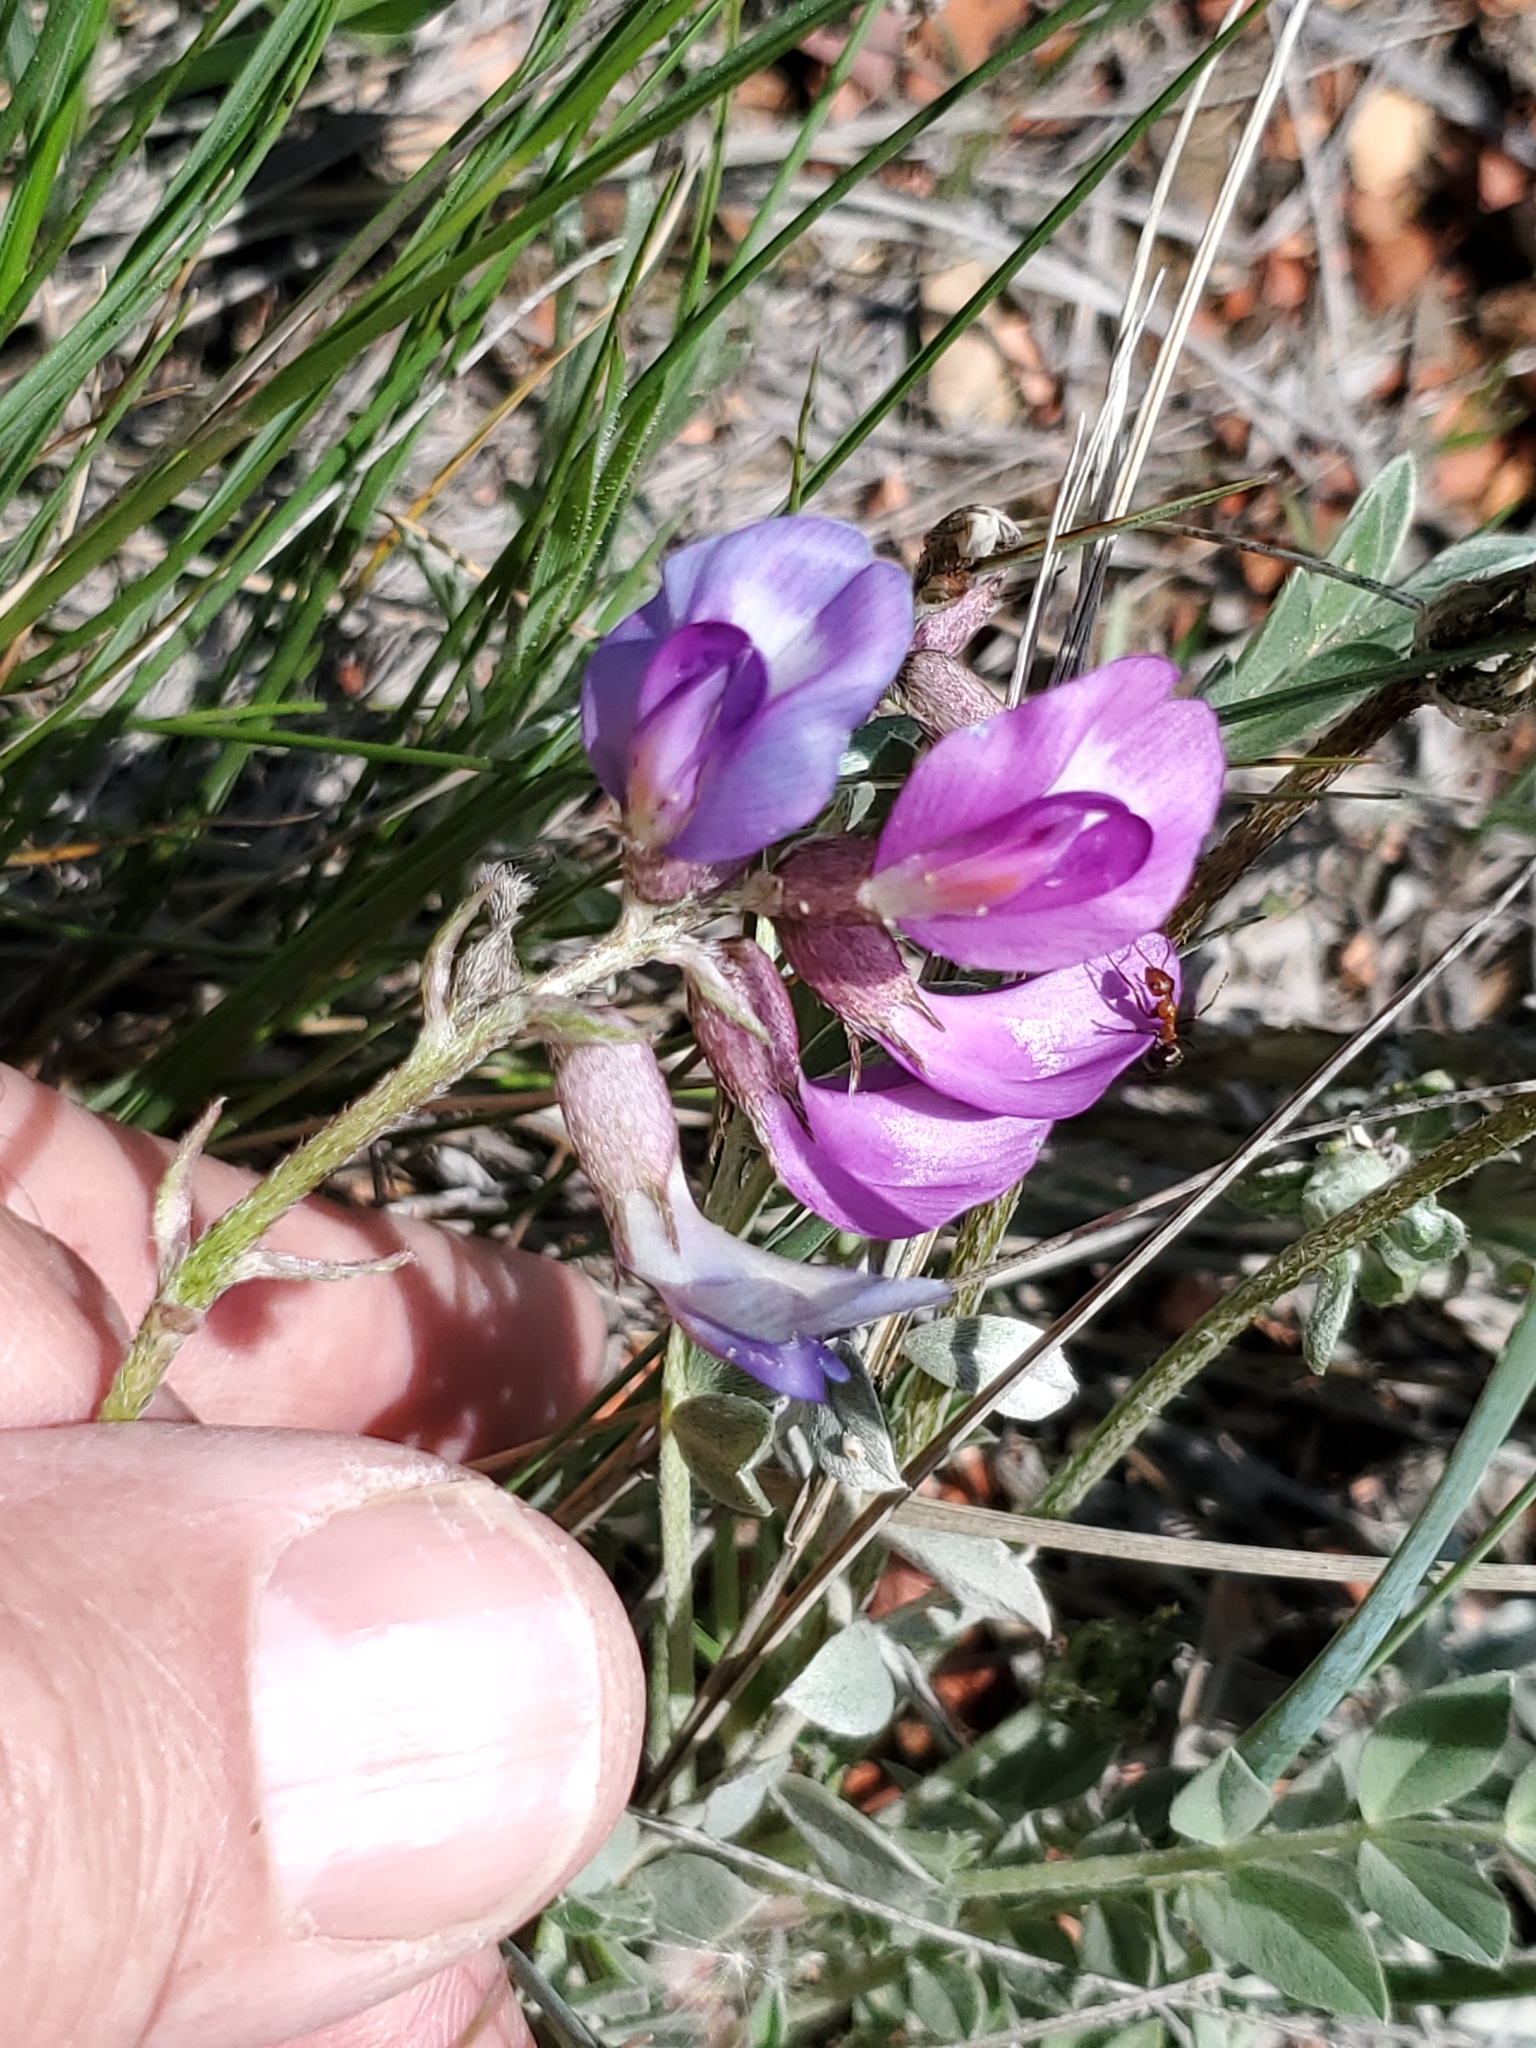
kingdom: Plantae
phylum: Tracheophyta
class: Magnoliopsida
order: Fabales
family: Fabaceae
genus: Astragalus
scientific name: Astragalus missouriensis
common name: Missouri milk-vetch
